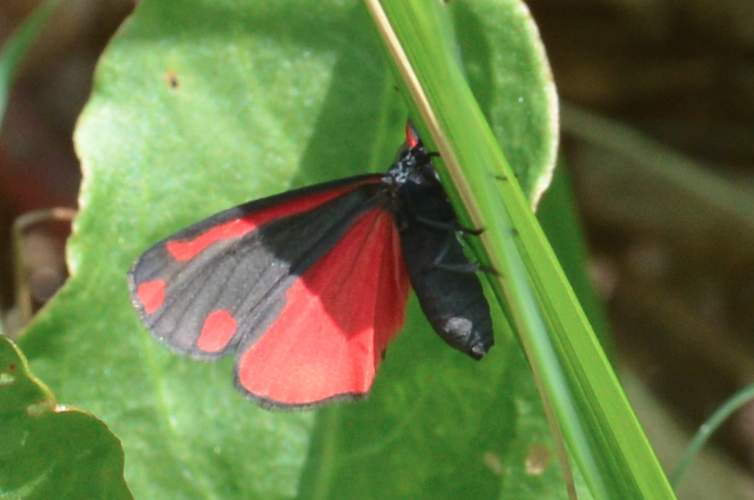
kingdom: Animalia
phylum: Arthropoda
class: Insecta
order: Lepidoptera
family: Erebidae
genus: Tyria
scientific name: Tyria jacobaeae
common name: Cinnabar
